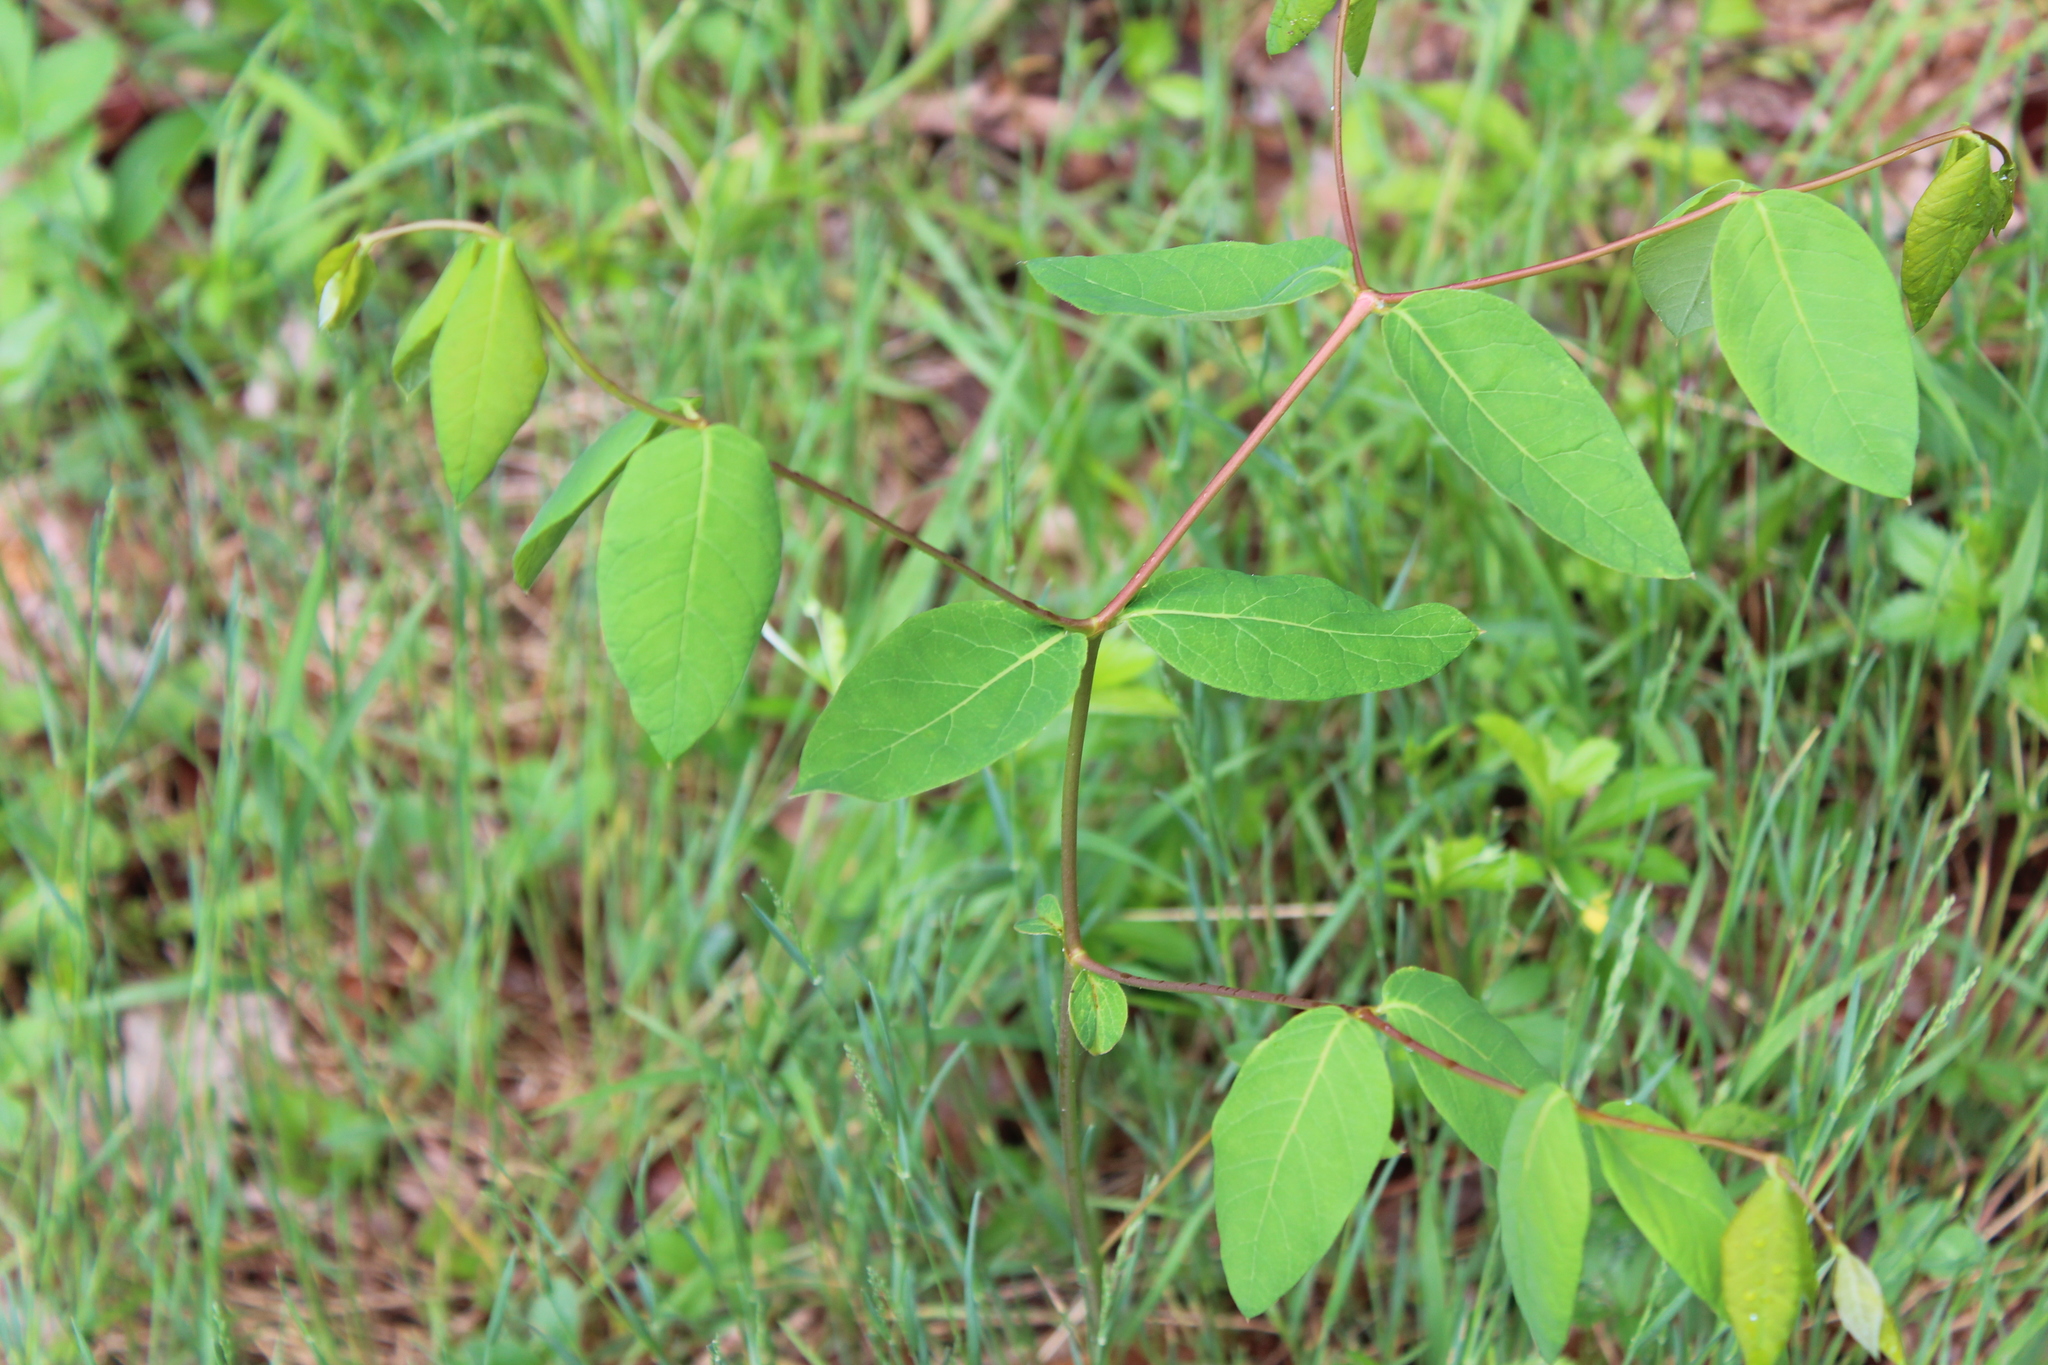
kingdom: Plantae
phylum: Tracheophyta
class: Magnoliopsida
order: Gentianales
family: Apocynaceae
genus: Apocynum
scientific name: Apocynum androsaemifolium
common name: Spreading dogbane
